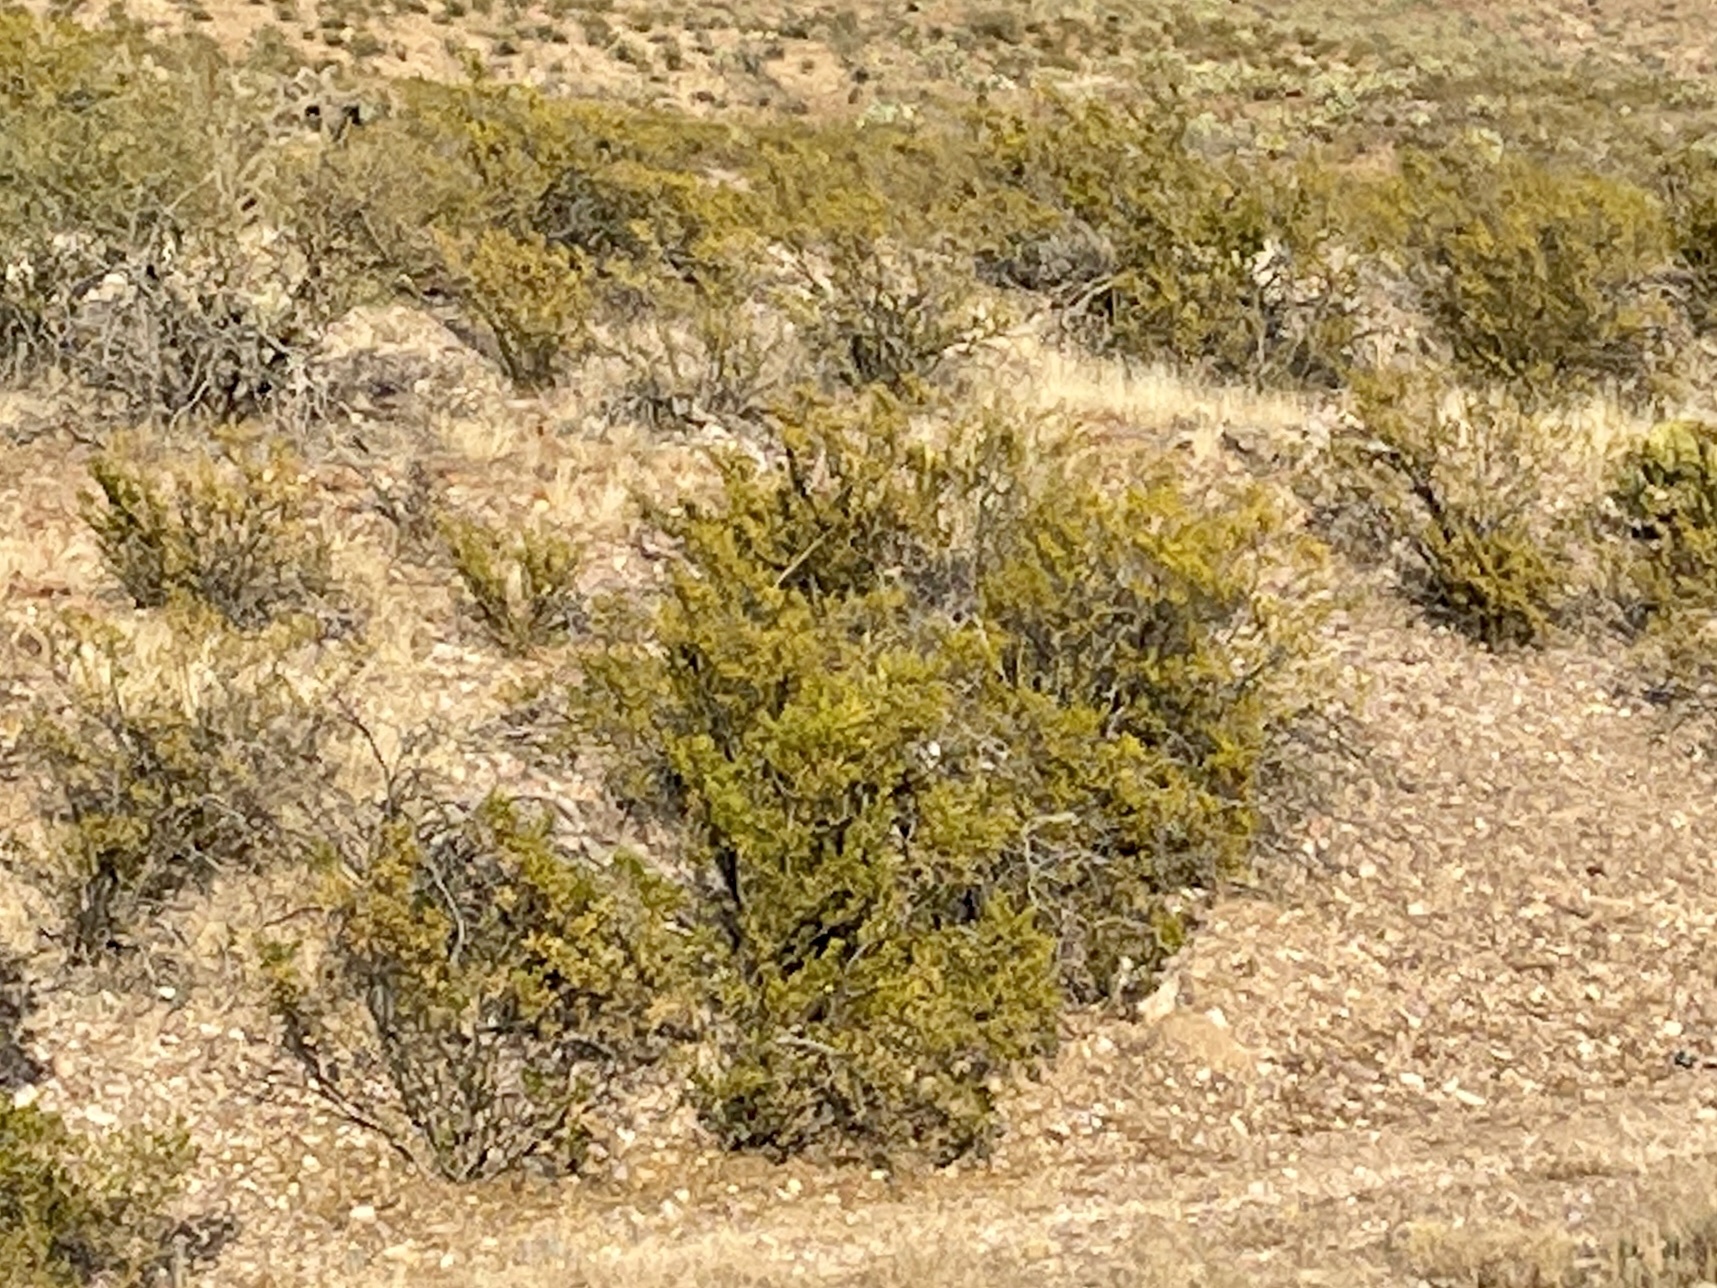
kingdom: Plantae
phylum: Tracheophyta
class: Magnoliopsida
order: Zygophyllales
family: Zygophyllaceae
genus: Larrea
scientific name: Larrea tridentata
